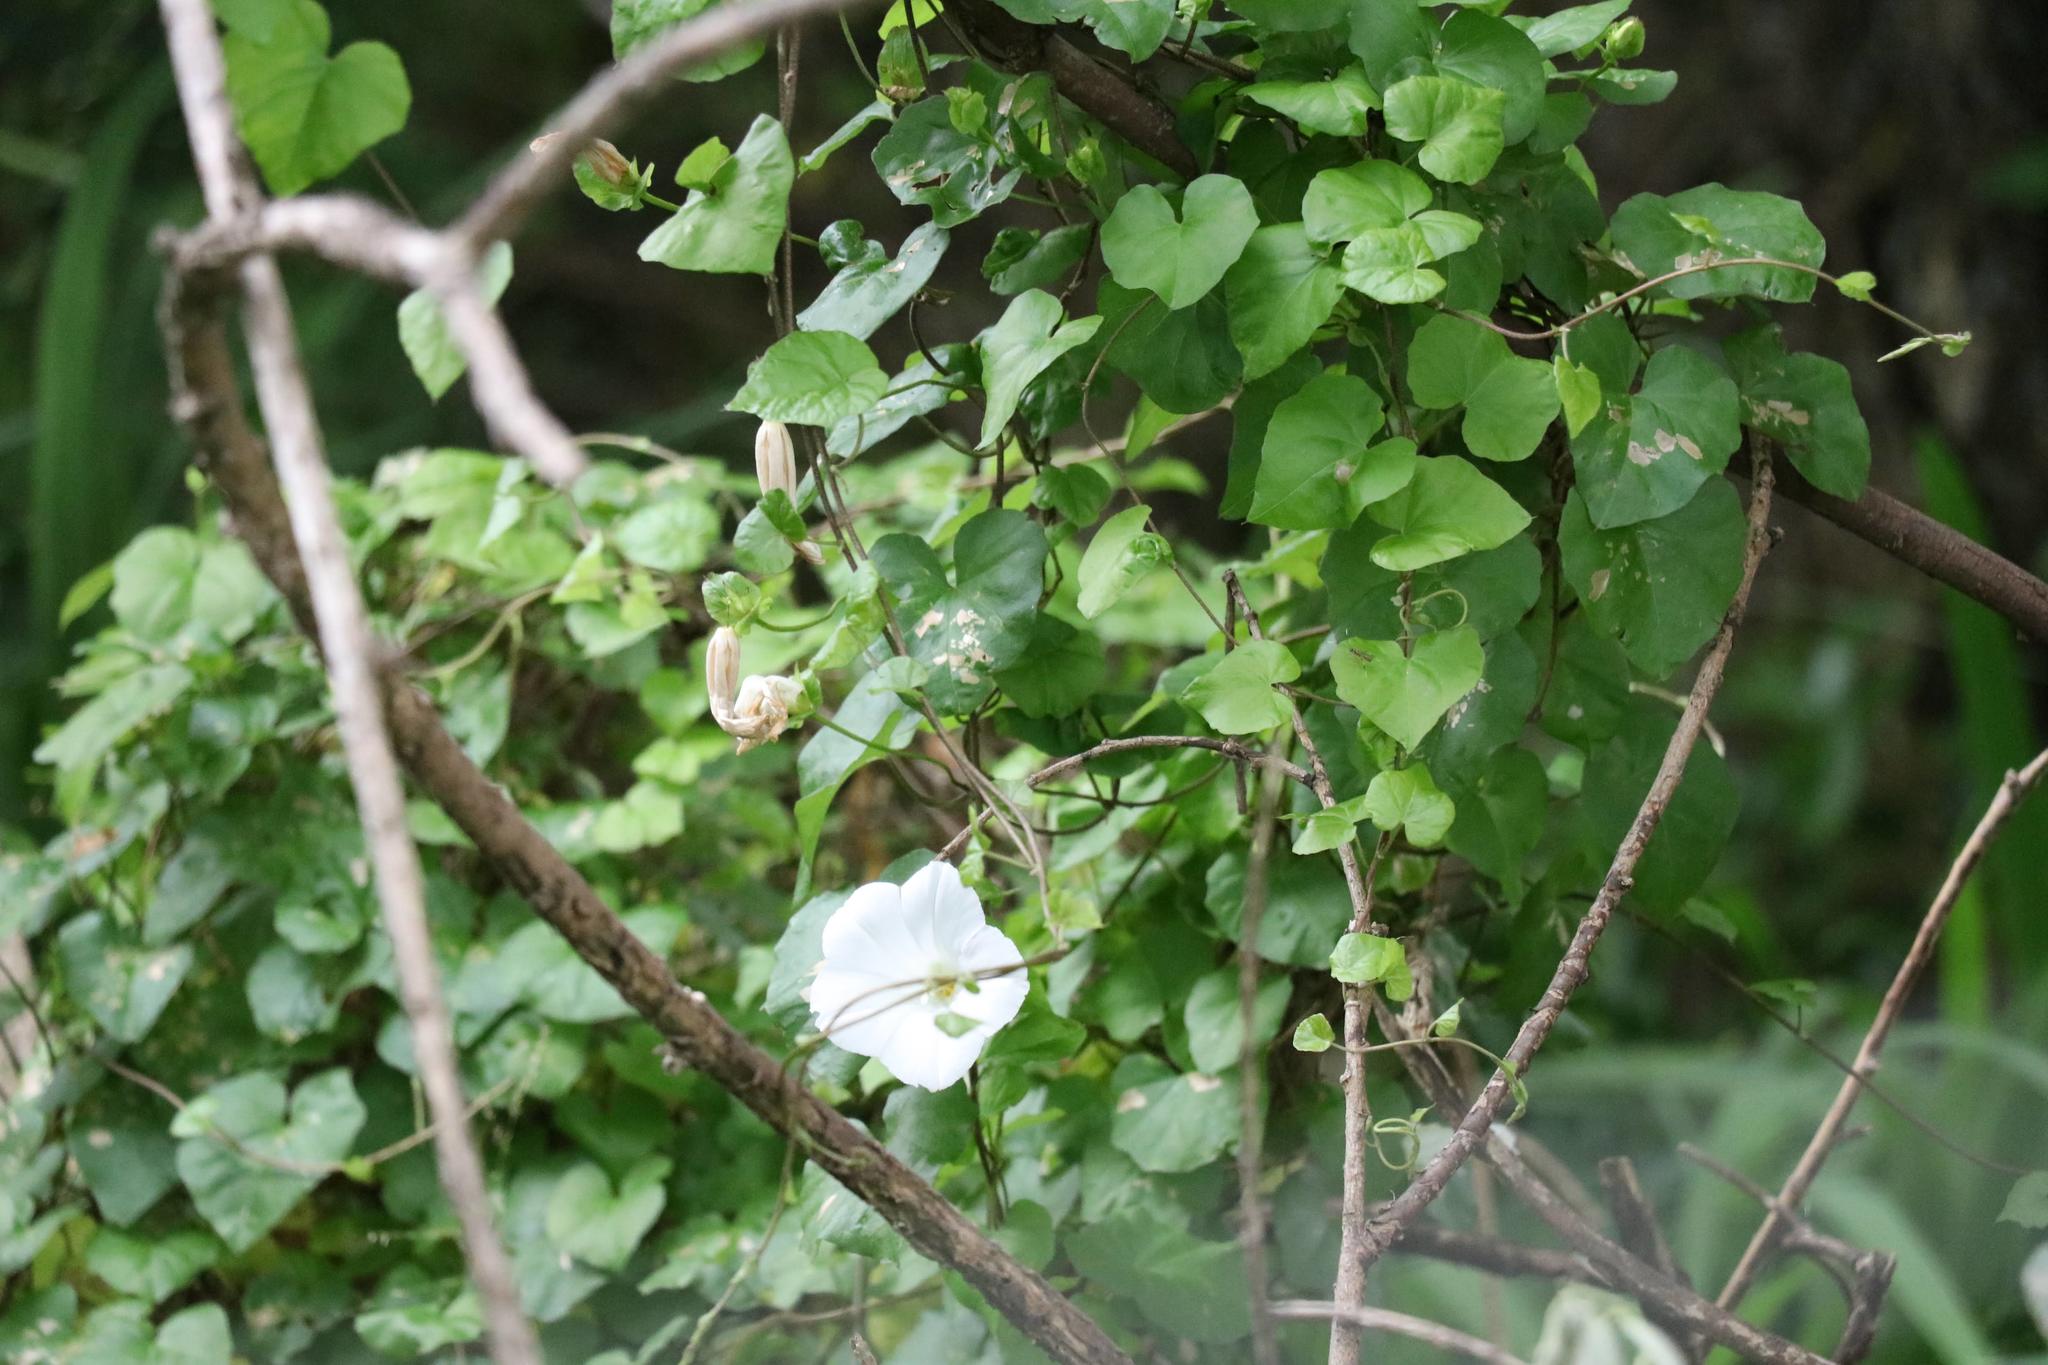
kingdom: Plantae
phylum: Tracheophyta
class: Magnoliopsida
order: Solanales
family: Convolvulaceae
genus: Calystegia
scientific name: Calystegia tuguriorum
